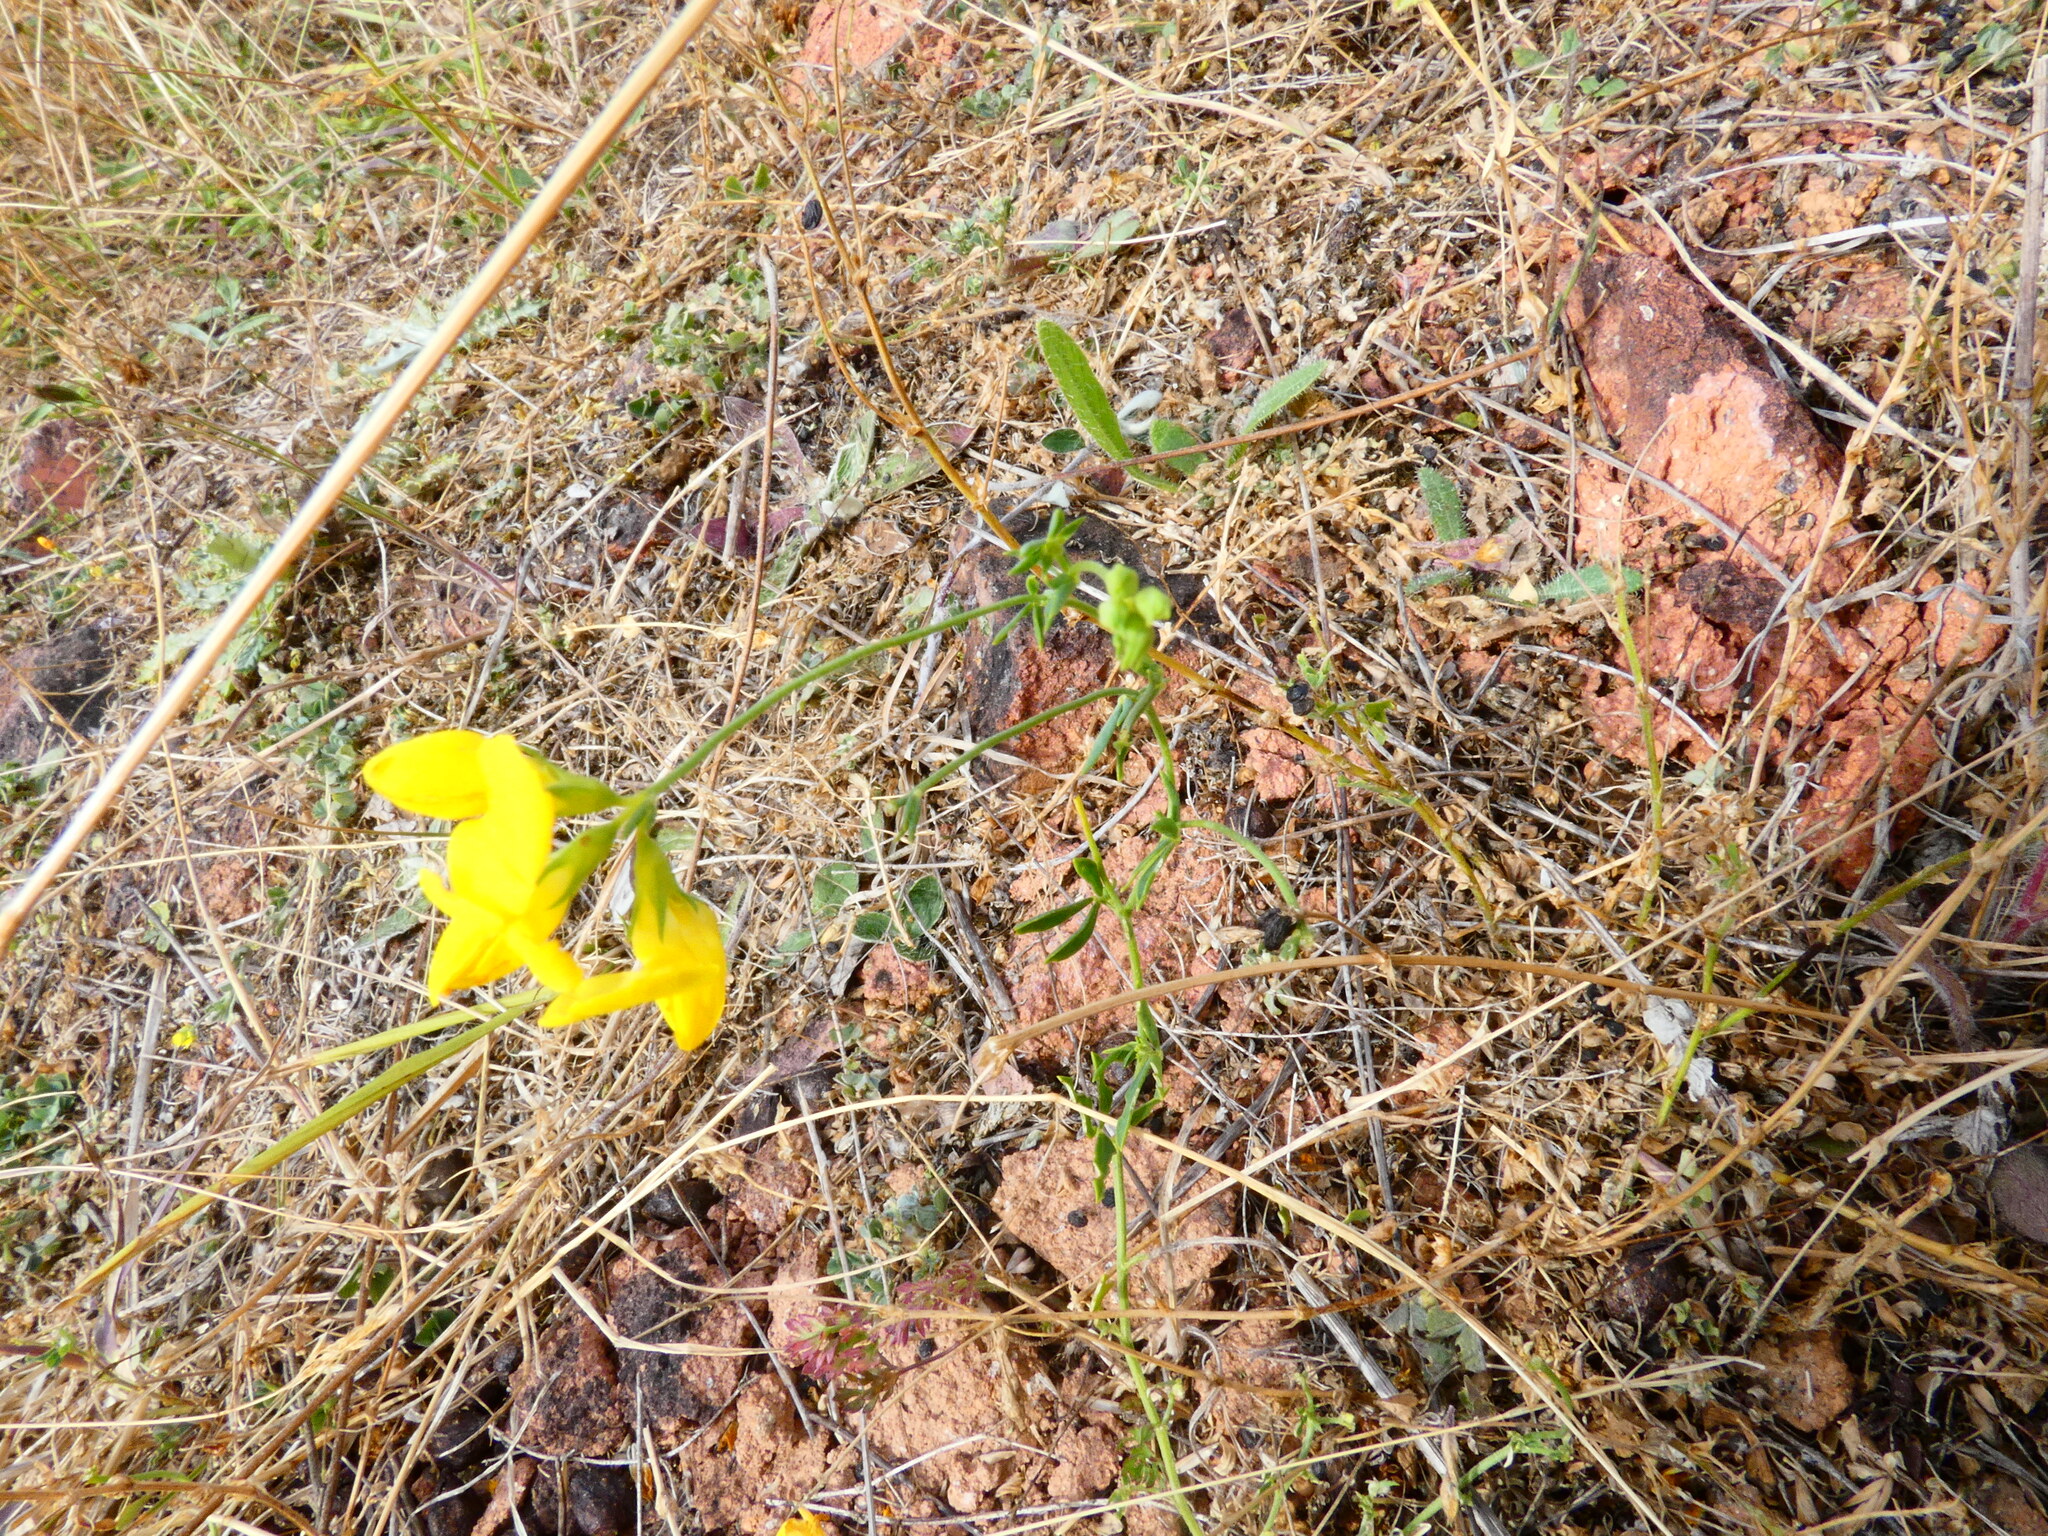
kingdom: Plantae
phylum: Tracheophyta
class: Magnoliopsida
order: Fabales
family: Fabaceae
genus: Lotus
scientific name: Lotus tenuis
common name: Narrow-leaved bird's-foot-trefoil
